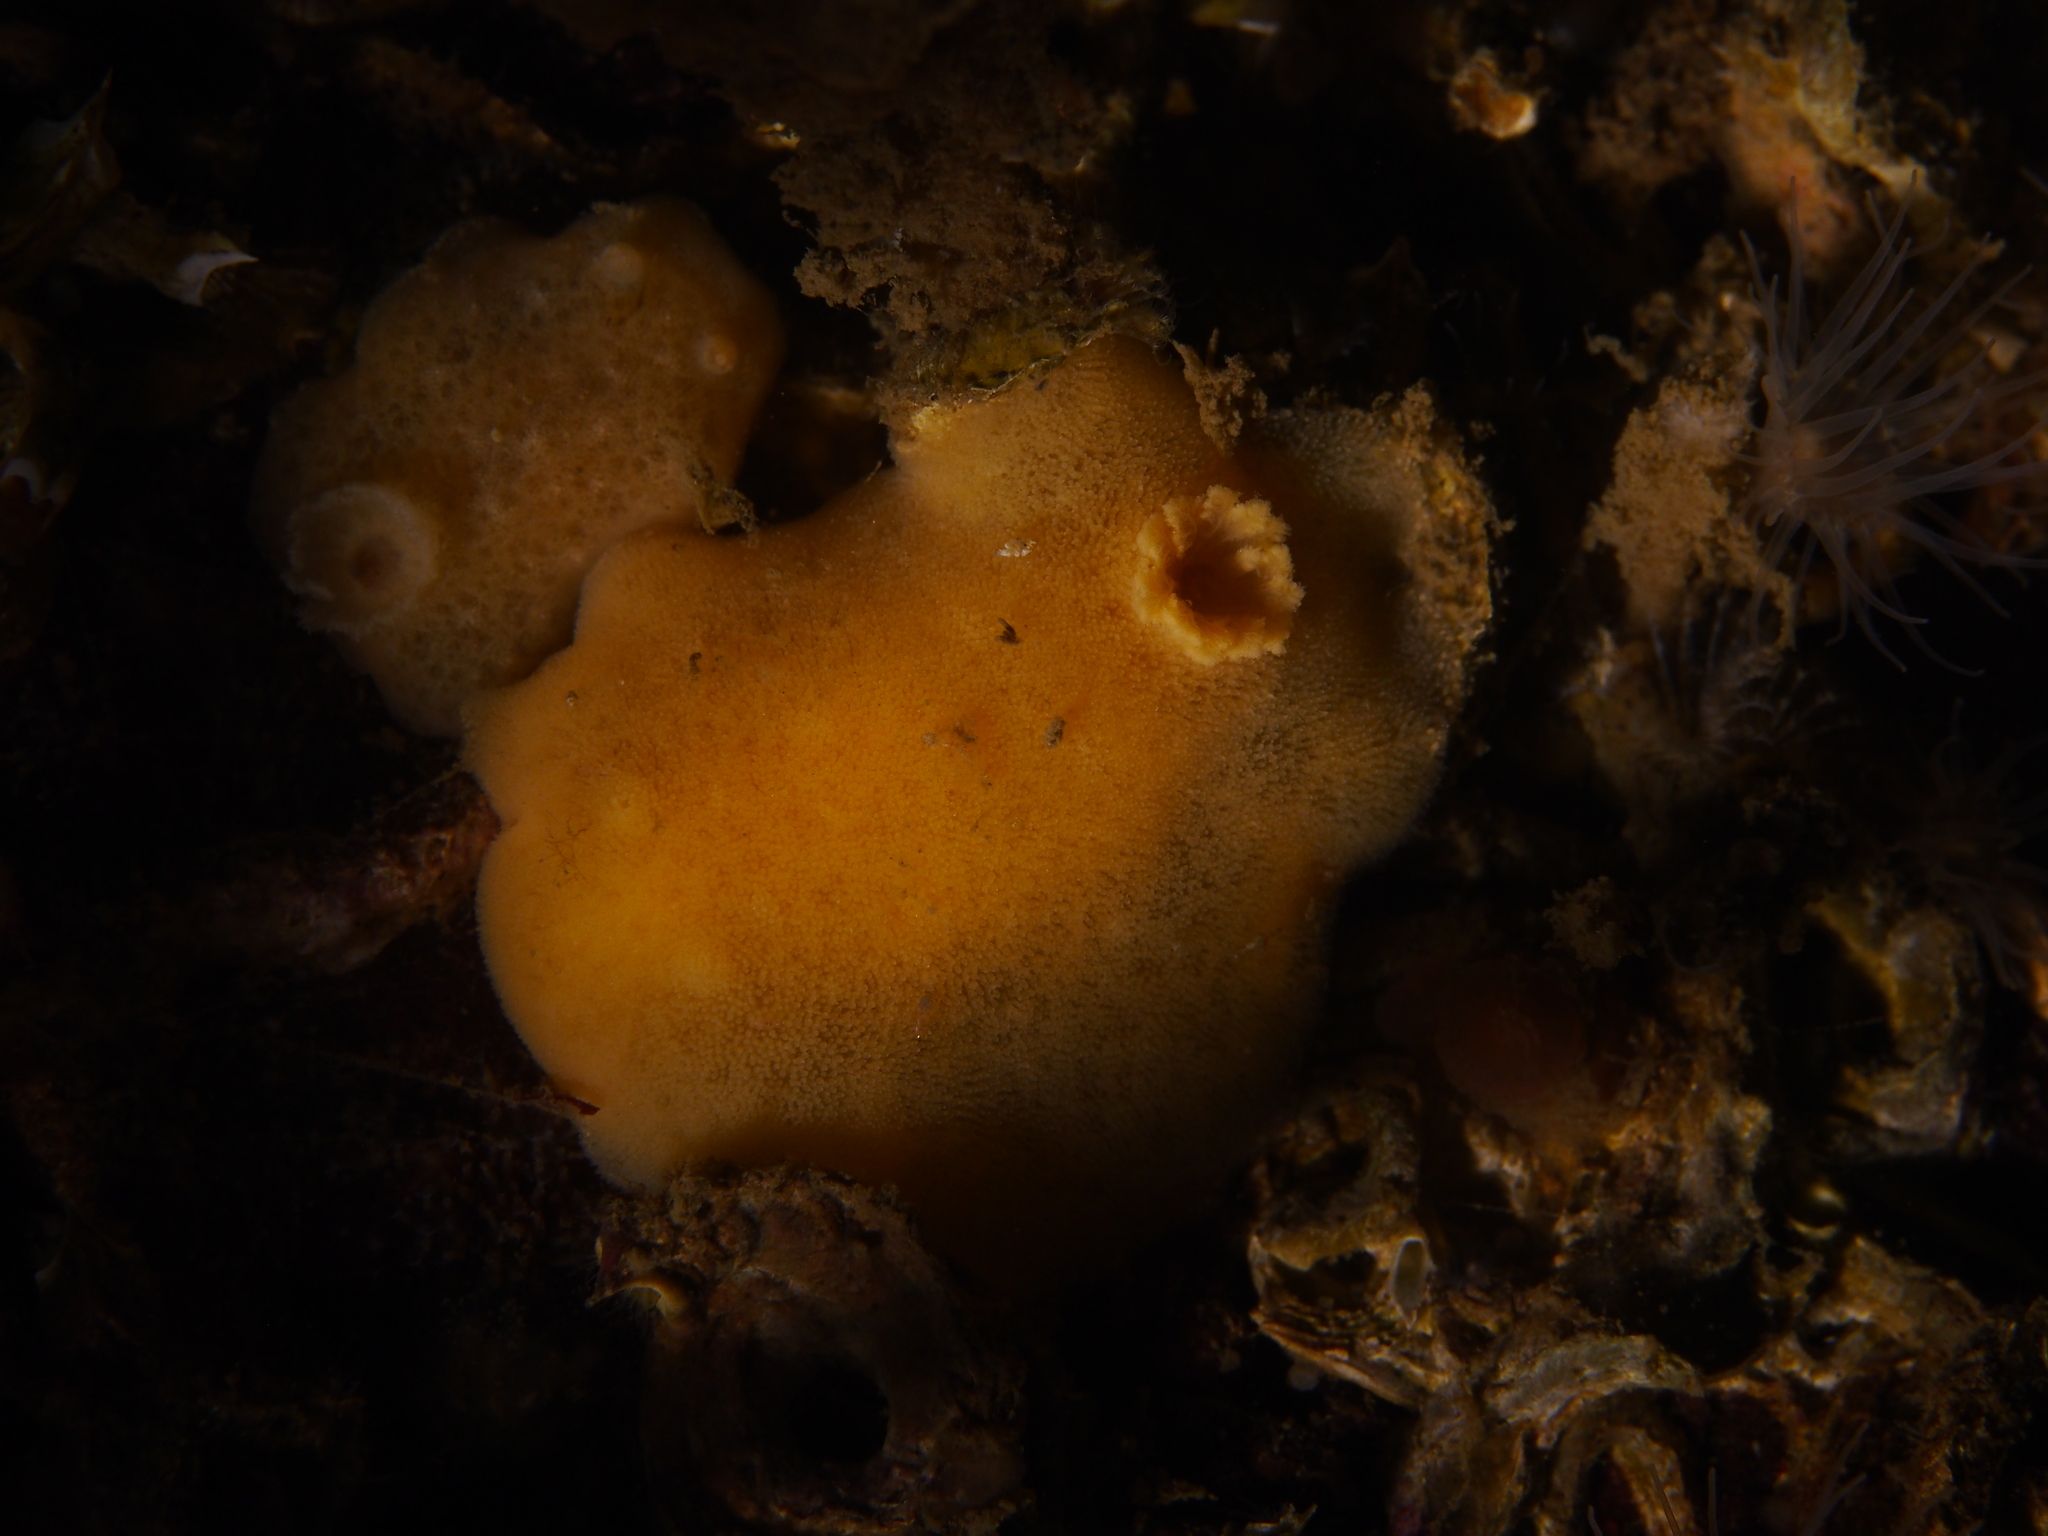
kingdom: Animalia
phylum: Mollusca
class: Gastropoda
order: Nudibranchia
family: Discodorididae
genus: Jorunna
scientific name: Jorunna tomentosa
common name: Grey sea slug
